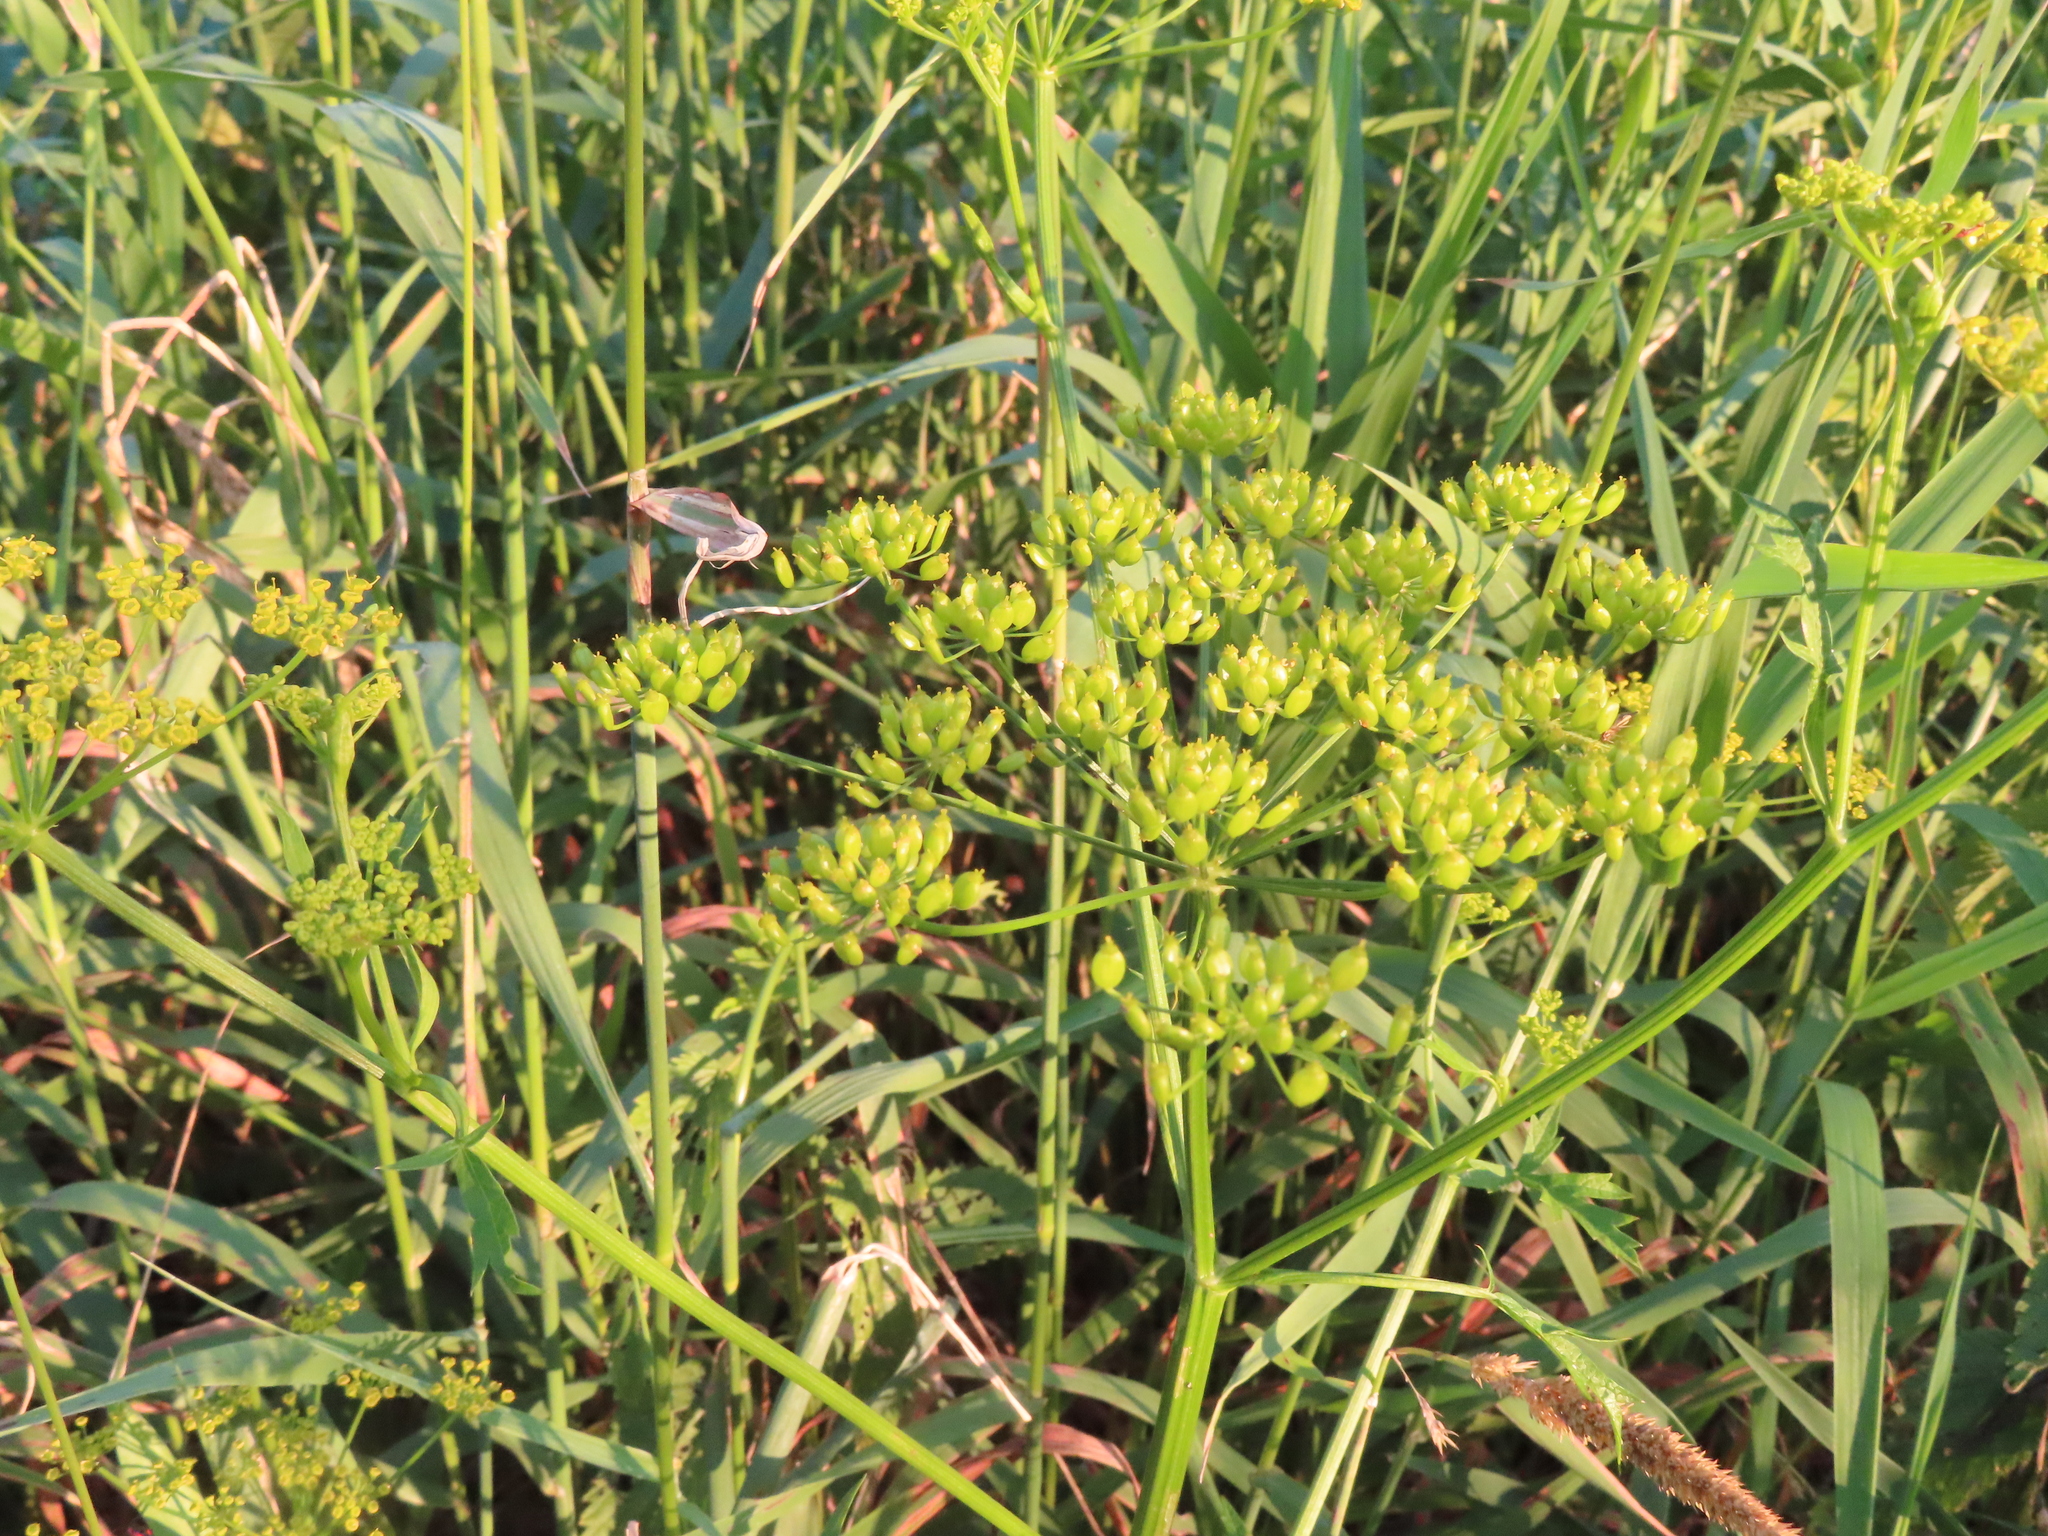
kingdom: Plantae
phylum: Tracheophyta
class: Magnoliopsida
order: Apiales
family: Apiaceae
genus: Pastinaca
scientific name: Pastinaca sativa
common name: Wild parsnip
